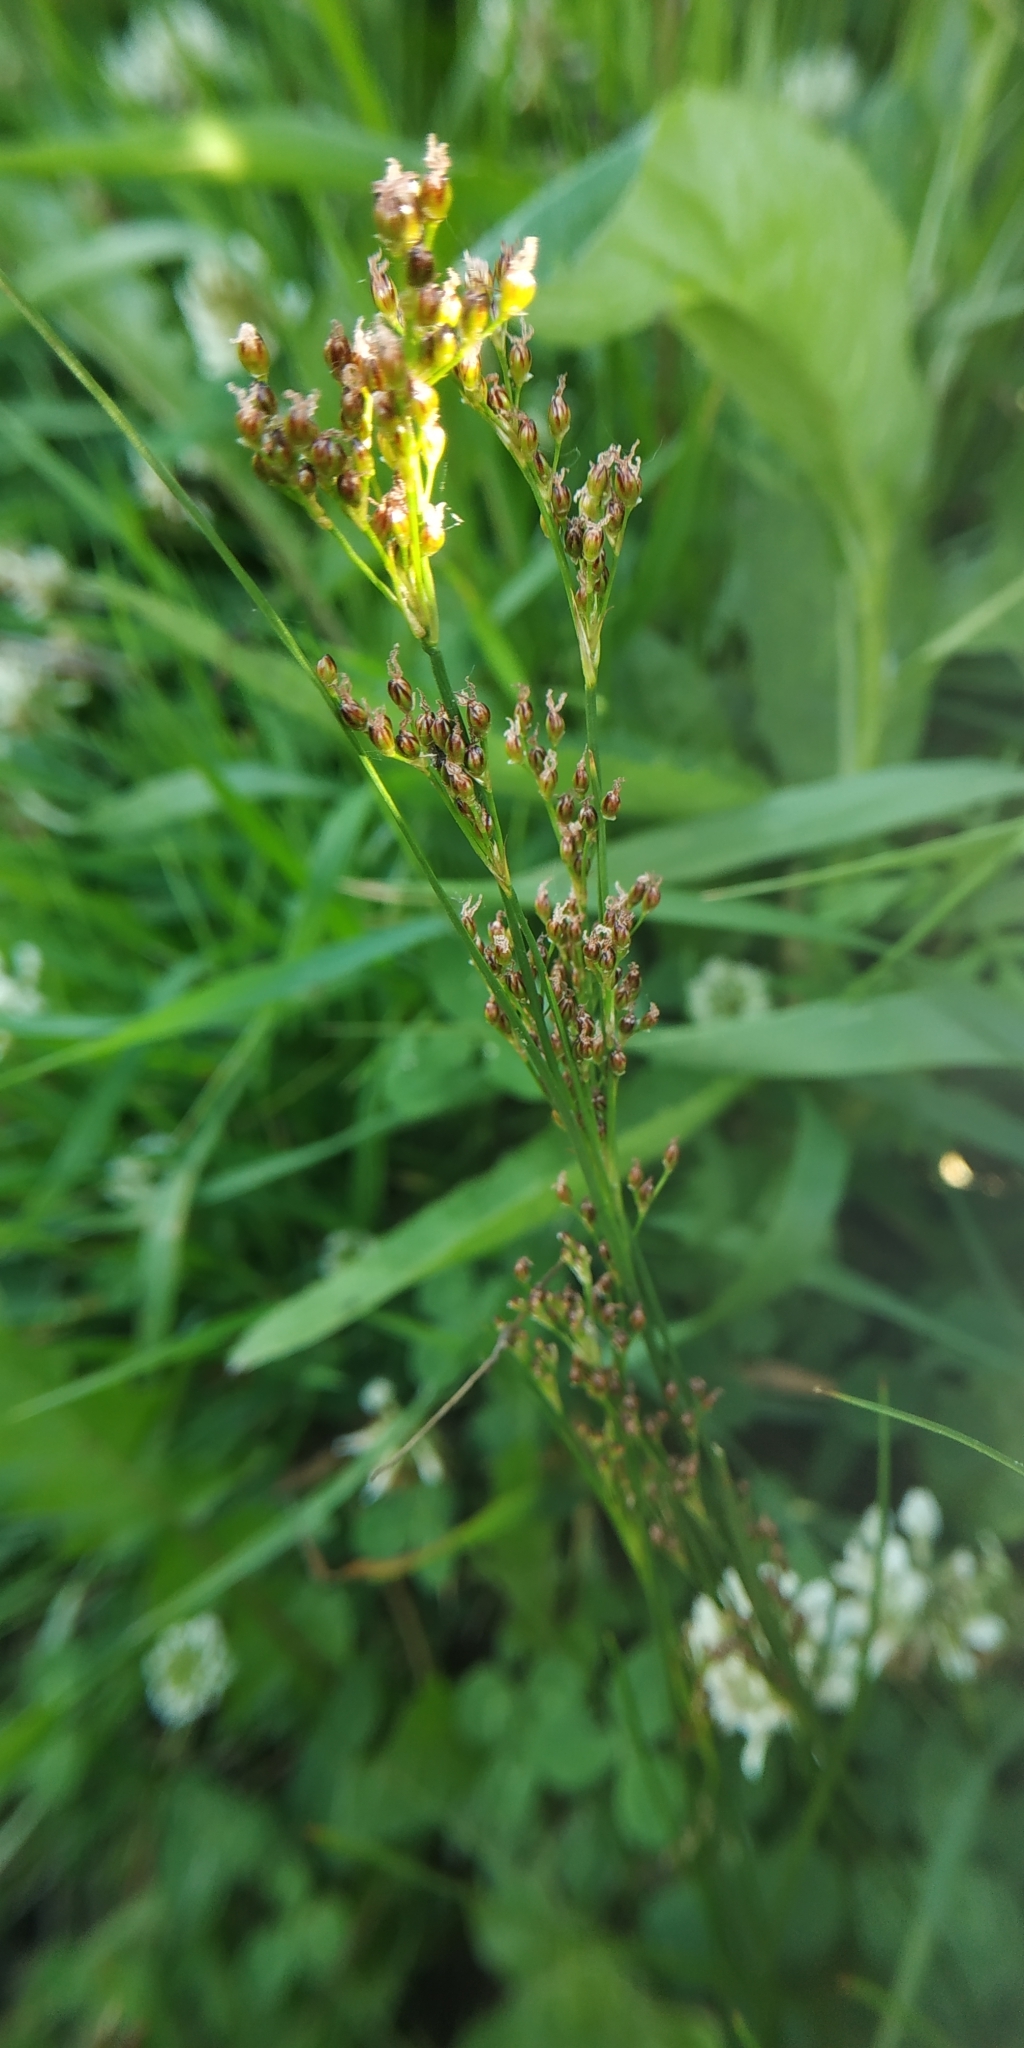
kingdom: Plantae
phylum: Tracheophyta
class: Liliopsida
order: Poales
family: Juncaceae
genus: Juncus
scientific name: Juncus compressus
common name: Round-fruited rush
